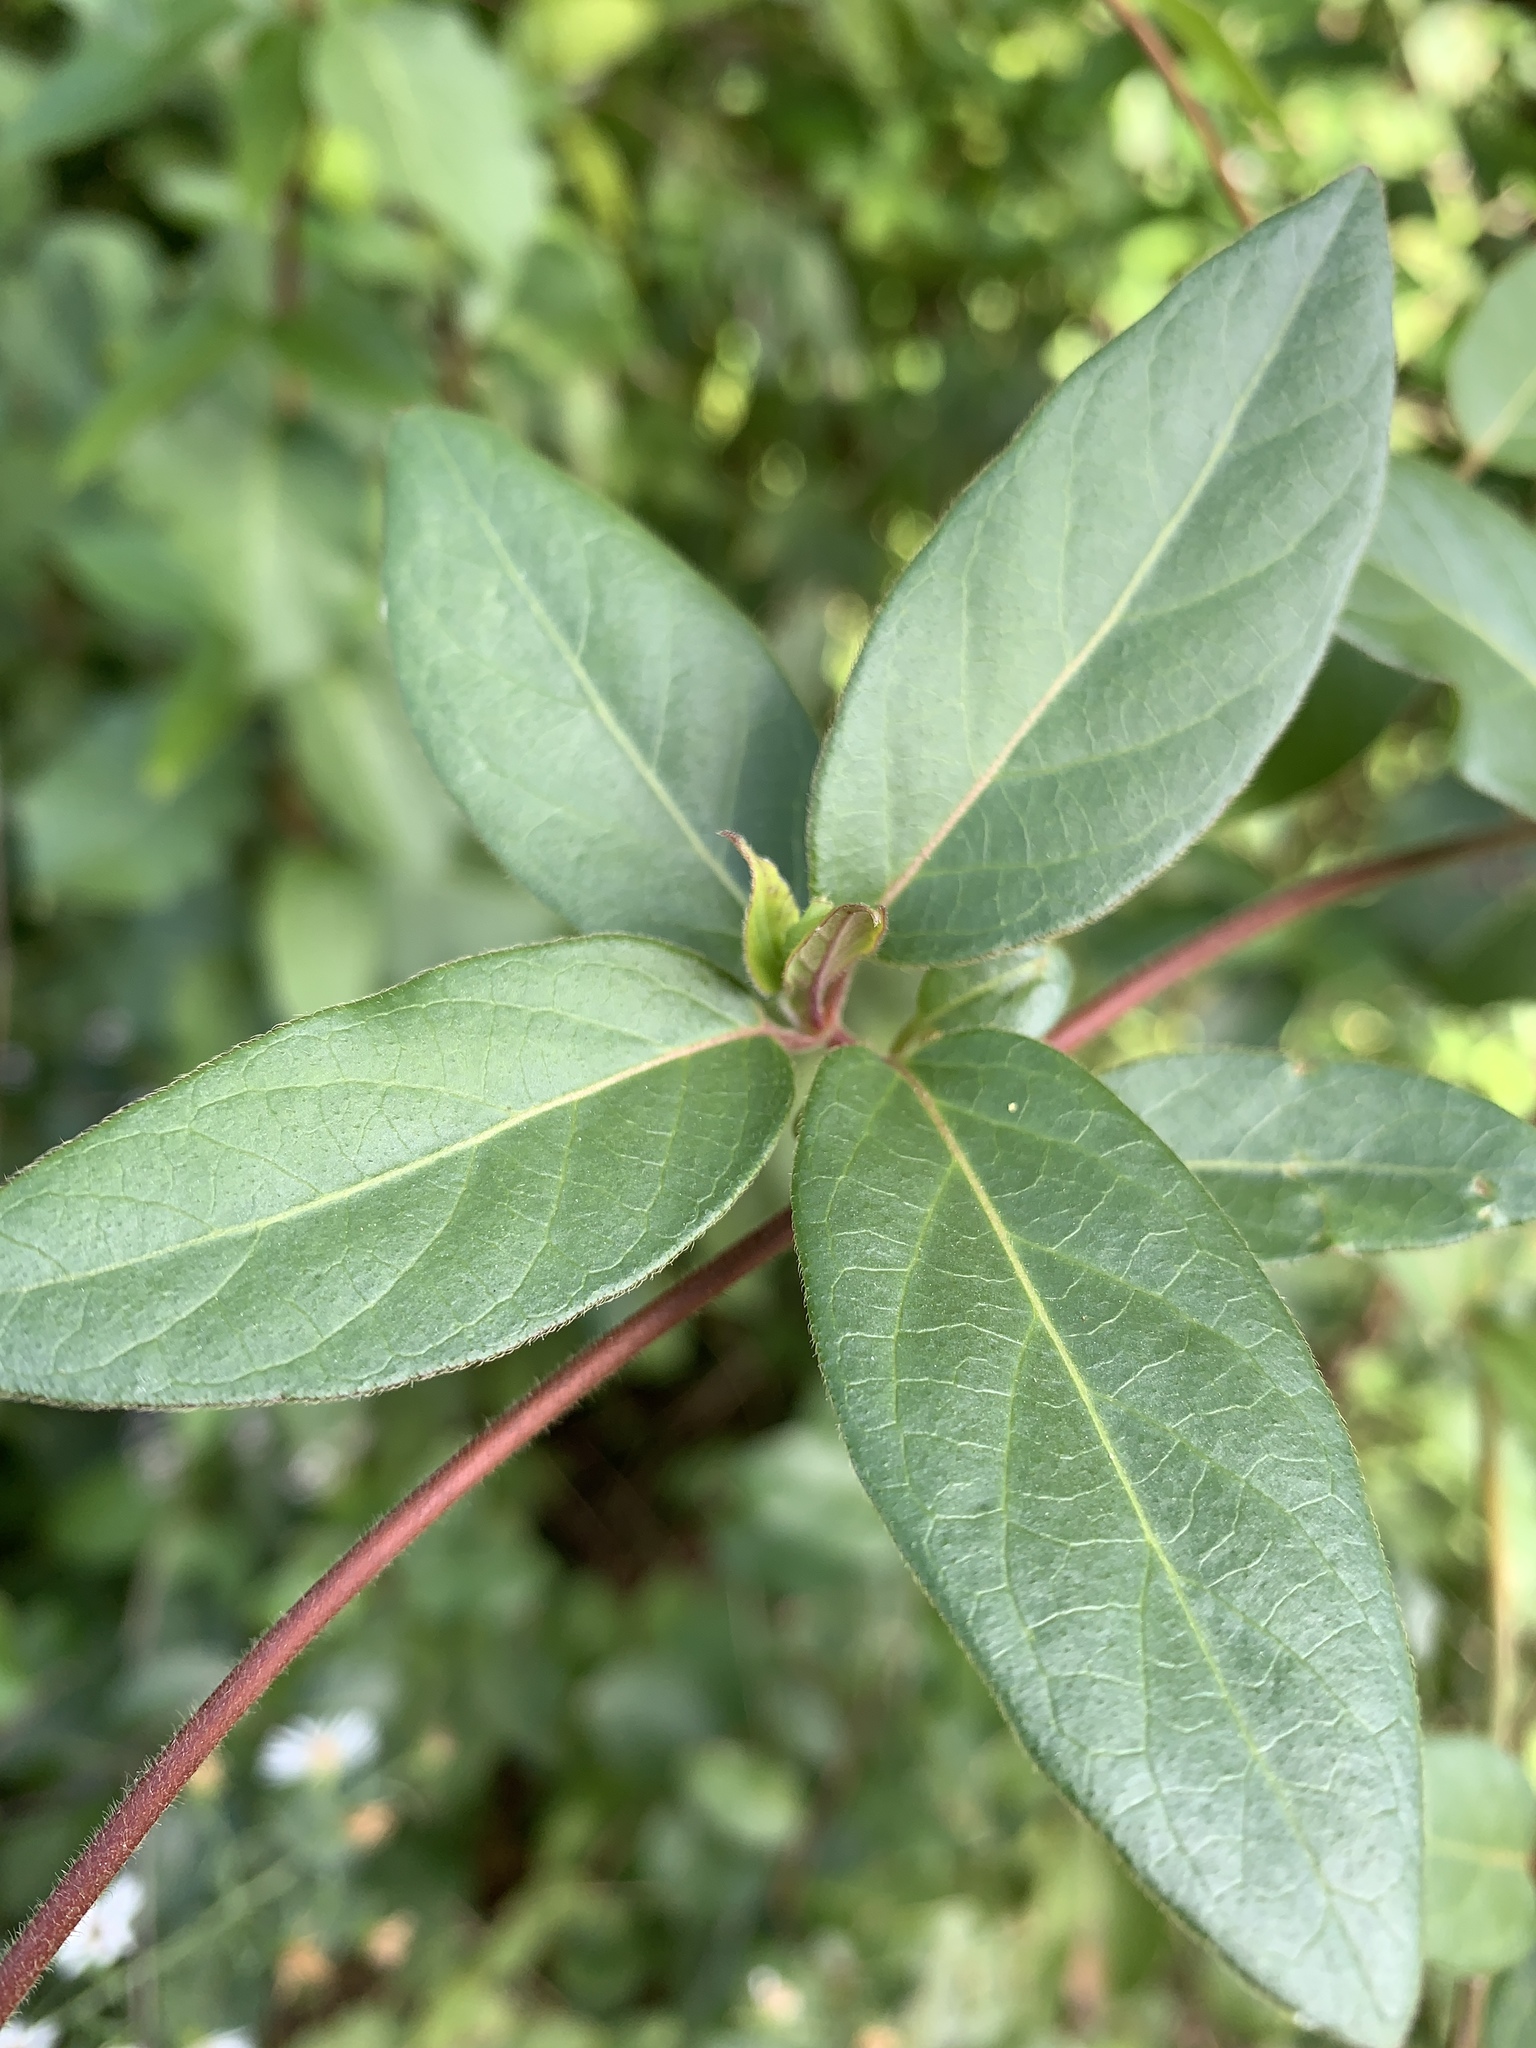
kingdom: Plantae
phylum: Tracheophyta
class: Magnoliopsida
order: Dipsacales
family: Caprifoliaceae
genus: Lonicera
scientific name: Lonicera japonica
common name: Japanese honeysuckle
